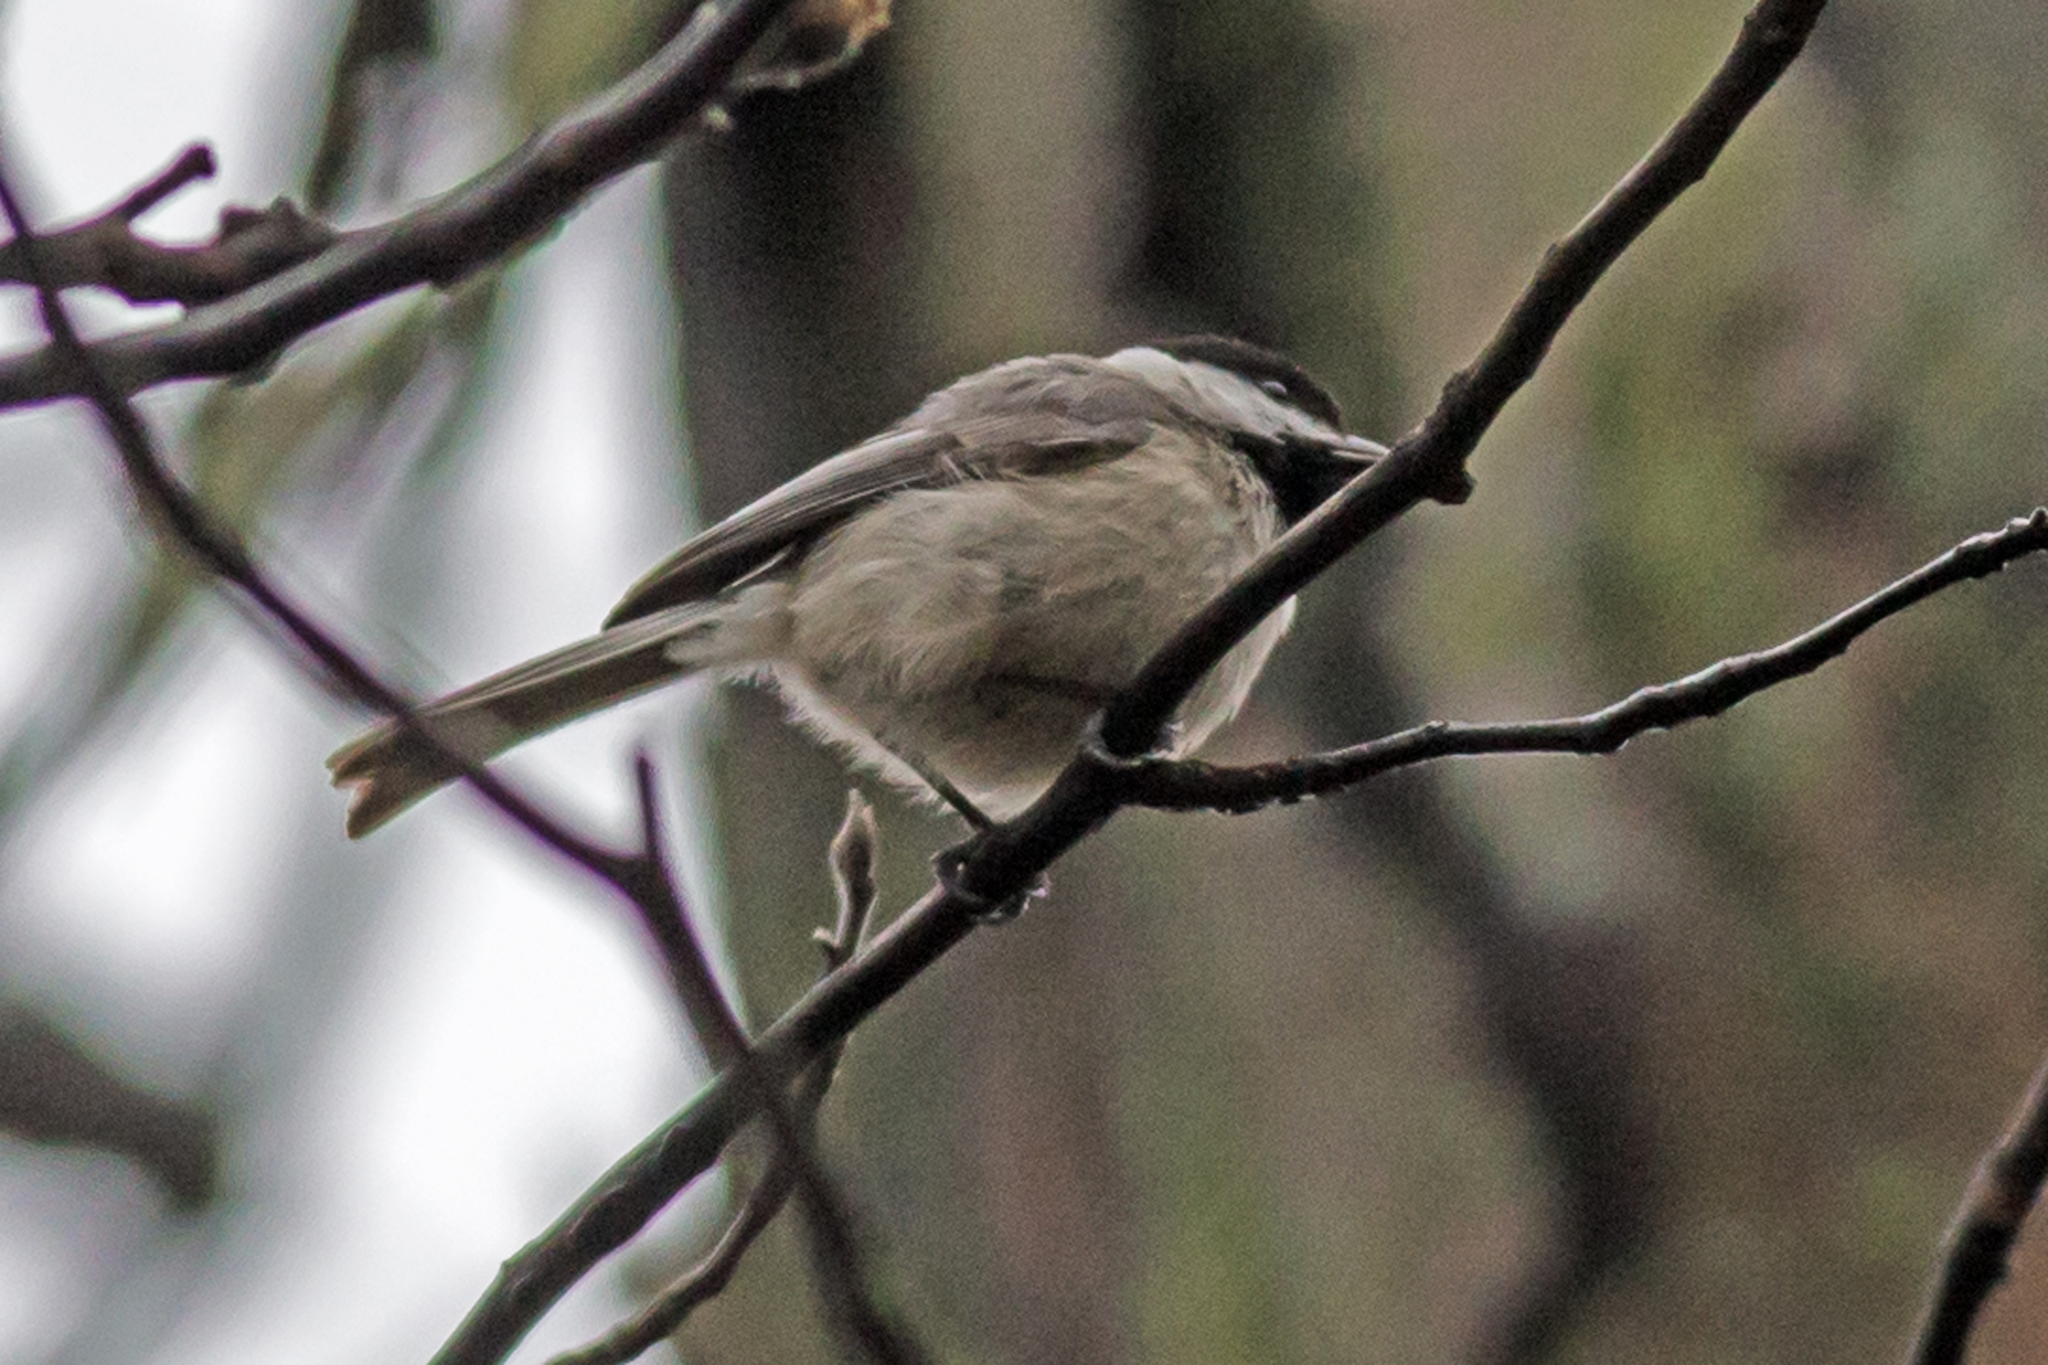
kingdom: Animalia
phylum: Chordata
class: Aves
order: Passeriformes
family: Paridae
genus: Poecile
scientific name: Poecile carolinensis
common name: Carolina chickadee
